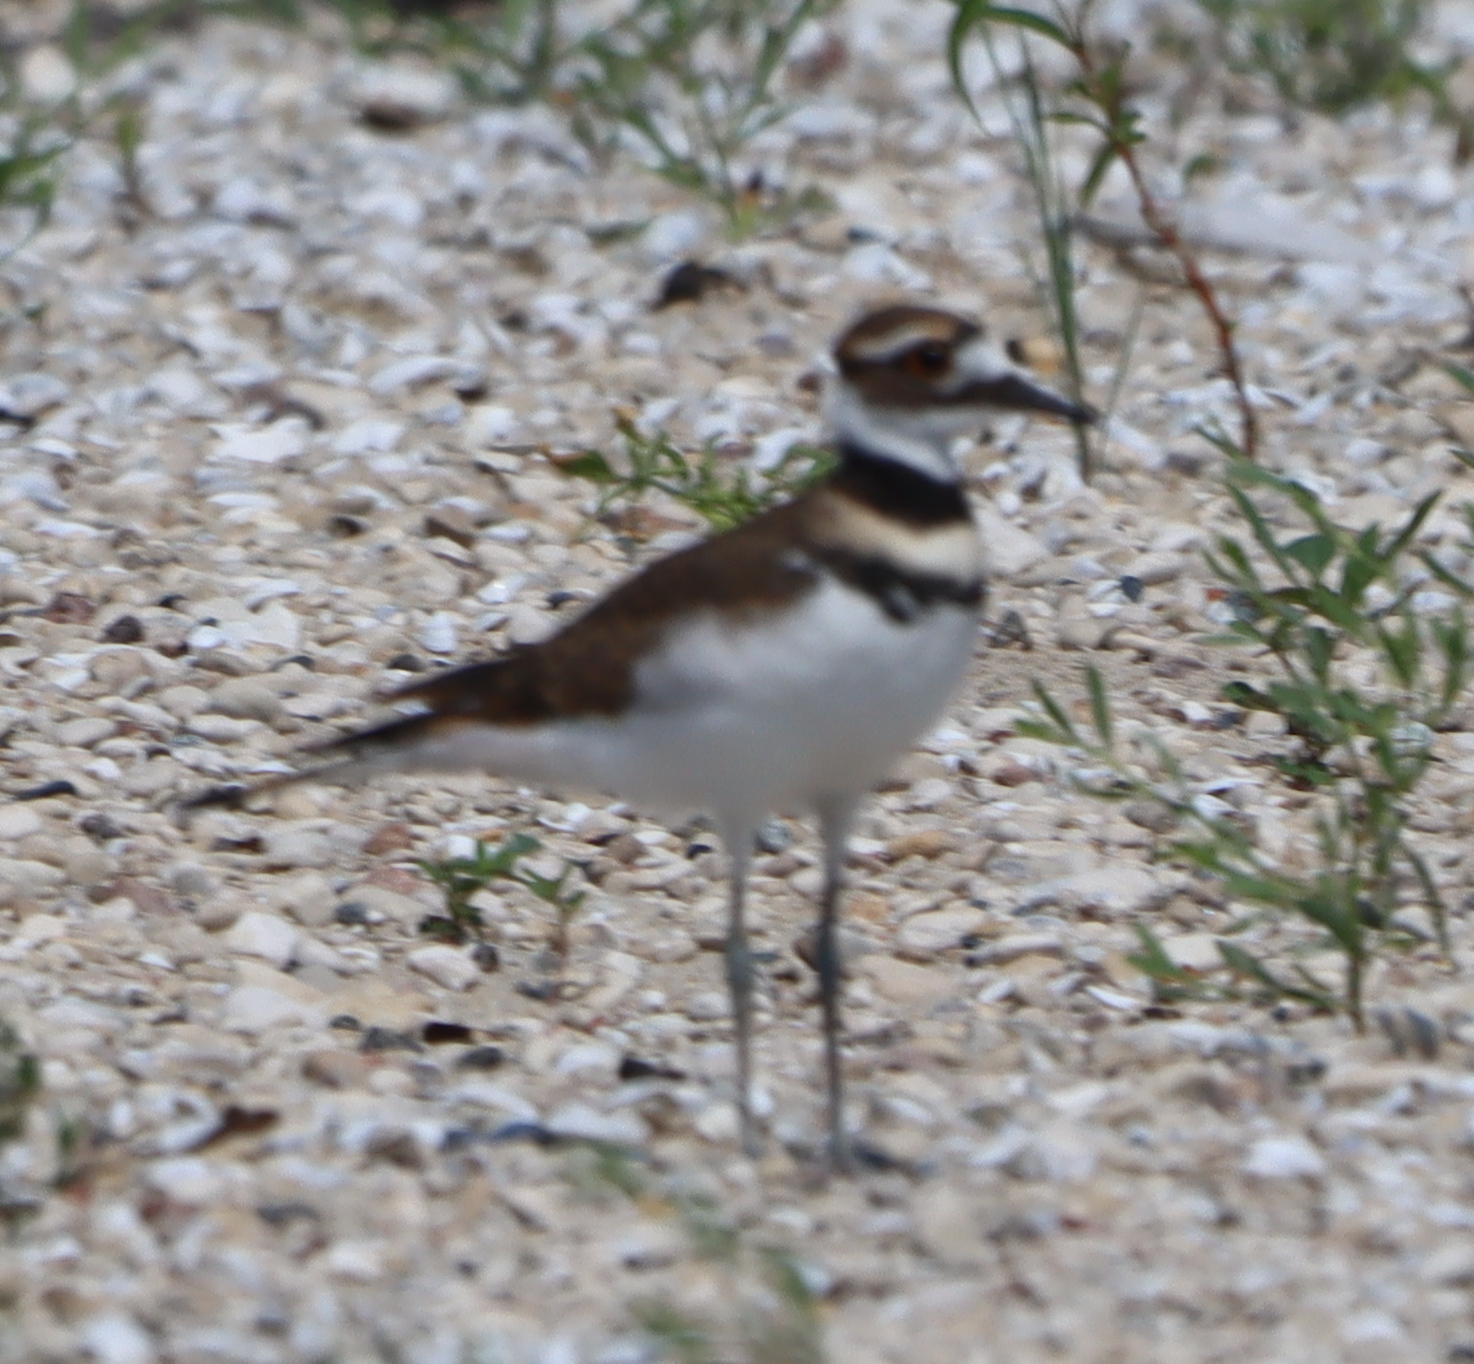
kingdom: Animalia
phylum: Chordata
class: Aves
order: Charadriiformes
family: Charadriidae
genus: Charadrius
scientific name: Charadrius vociferus
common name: Killdeer
